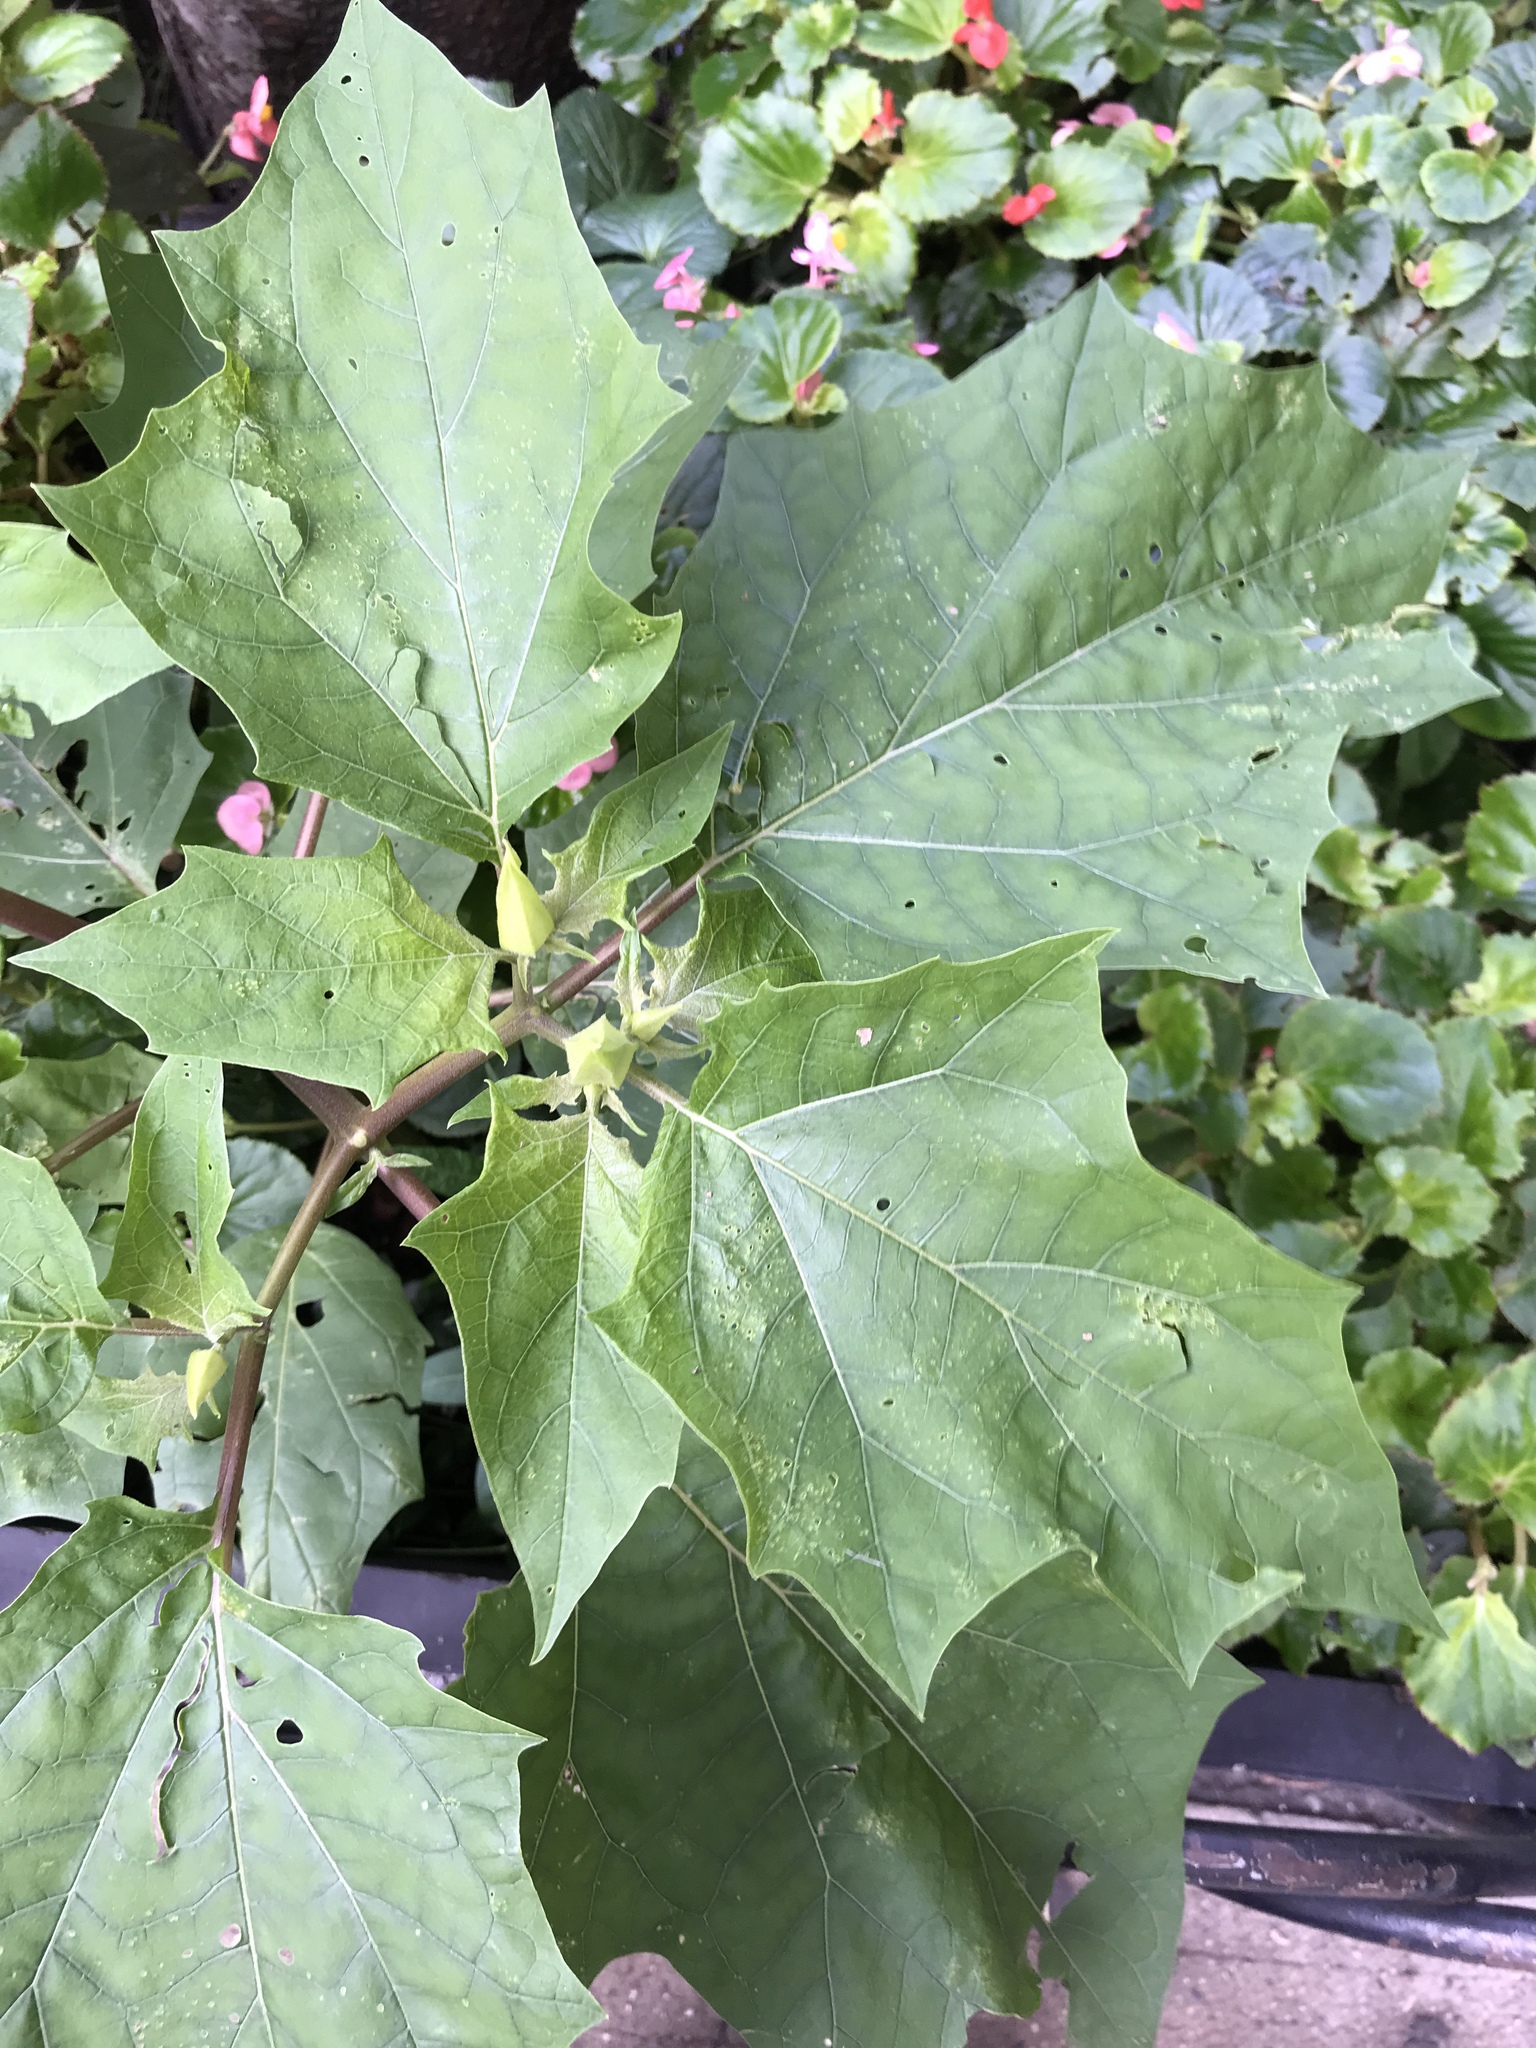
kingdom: Plantae
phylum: Tracheophyta
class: Magnoliopsida
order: Solanales
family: Solanaceae
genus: Datura
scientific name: Datura stramonium
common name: Thorn-apple
